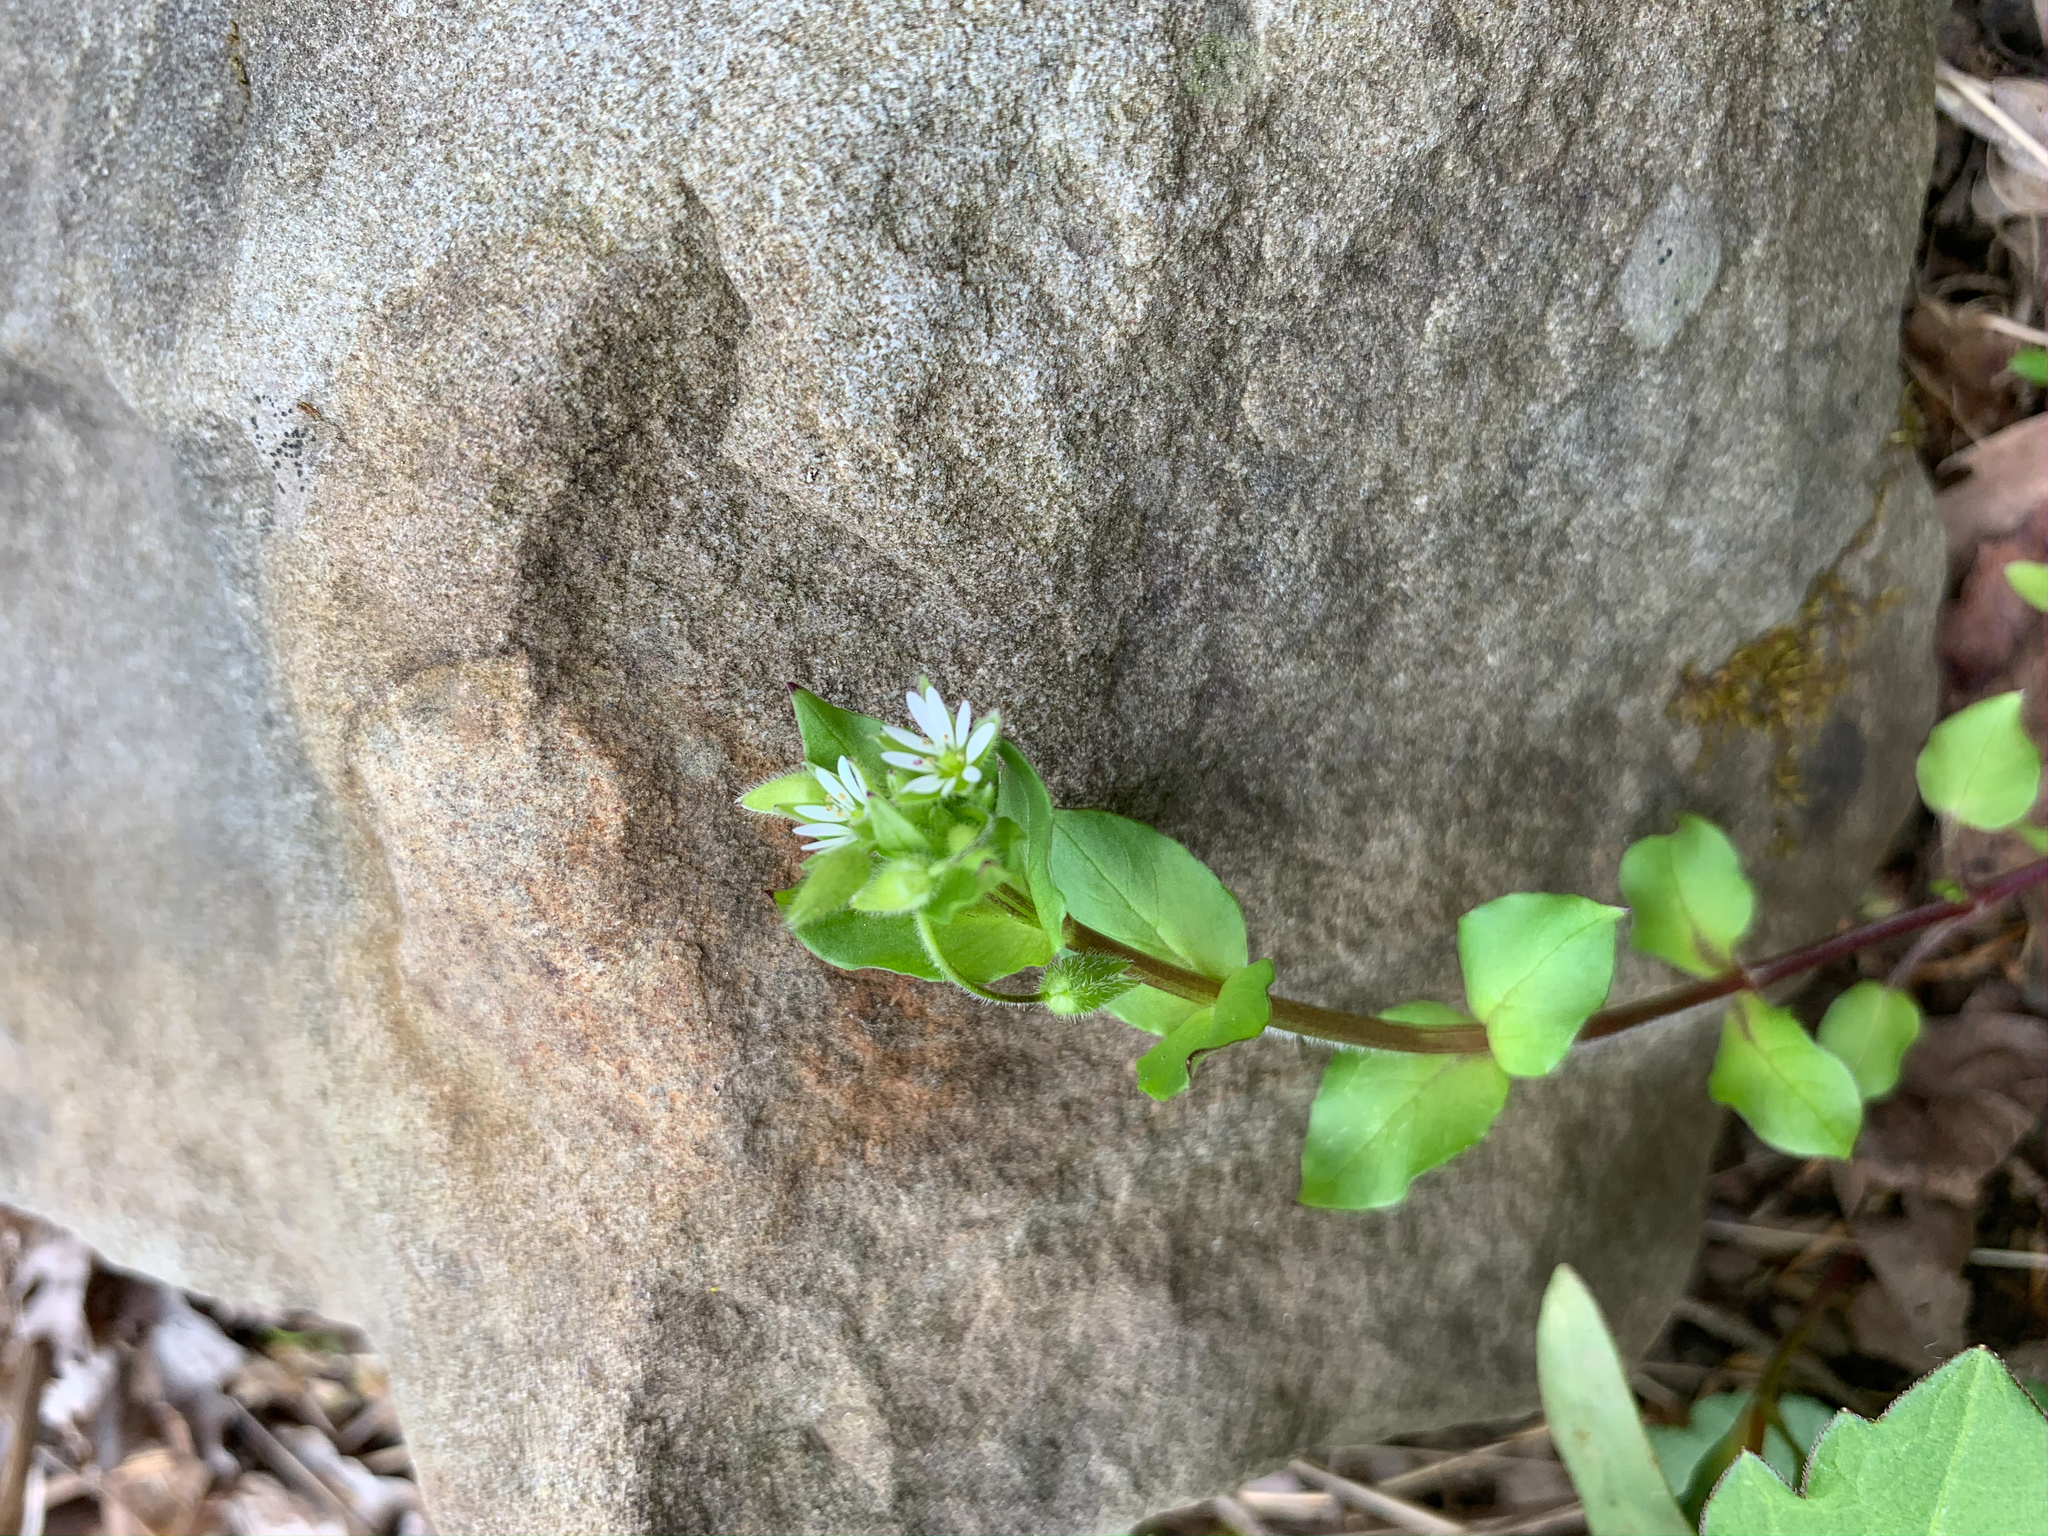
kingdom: Plantae
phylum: Tracheophyta
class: Magnoliopsida
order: Caryophyllales
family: Caryophyllaceae
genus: Stellaria
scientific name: Stellaria media
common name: Common chickweed
